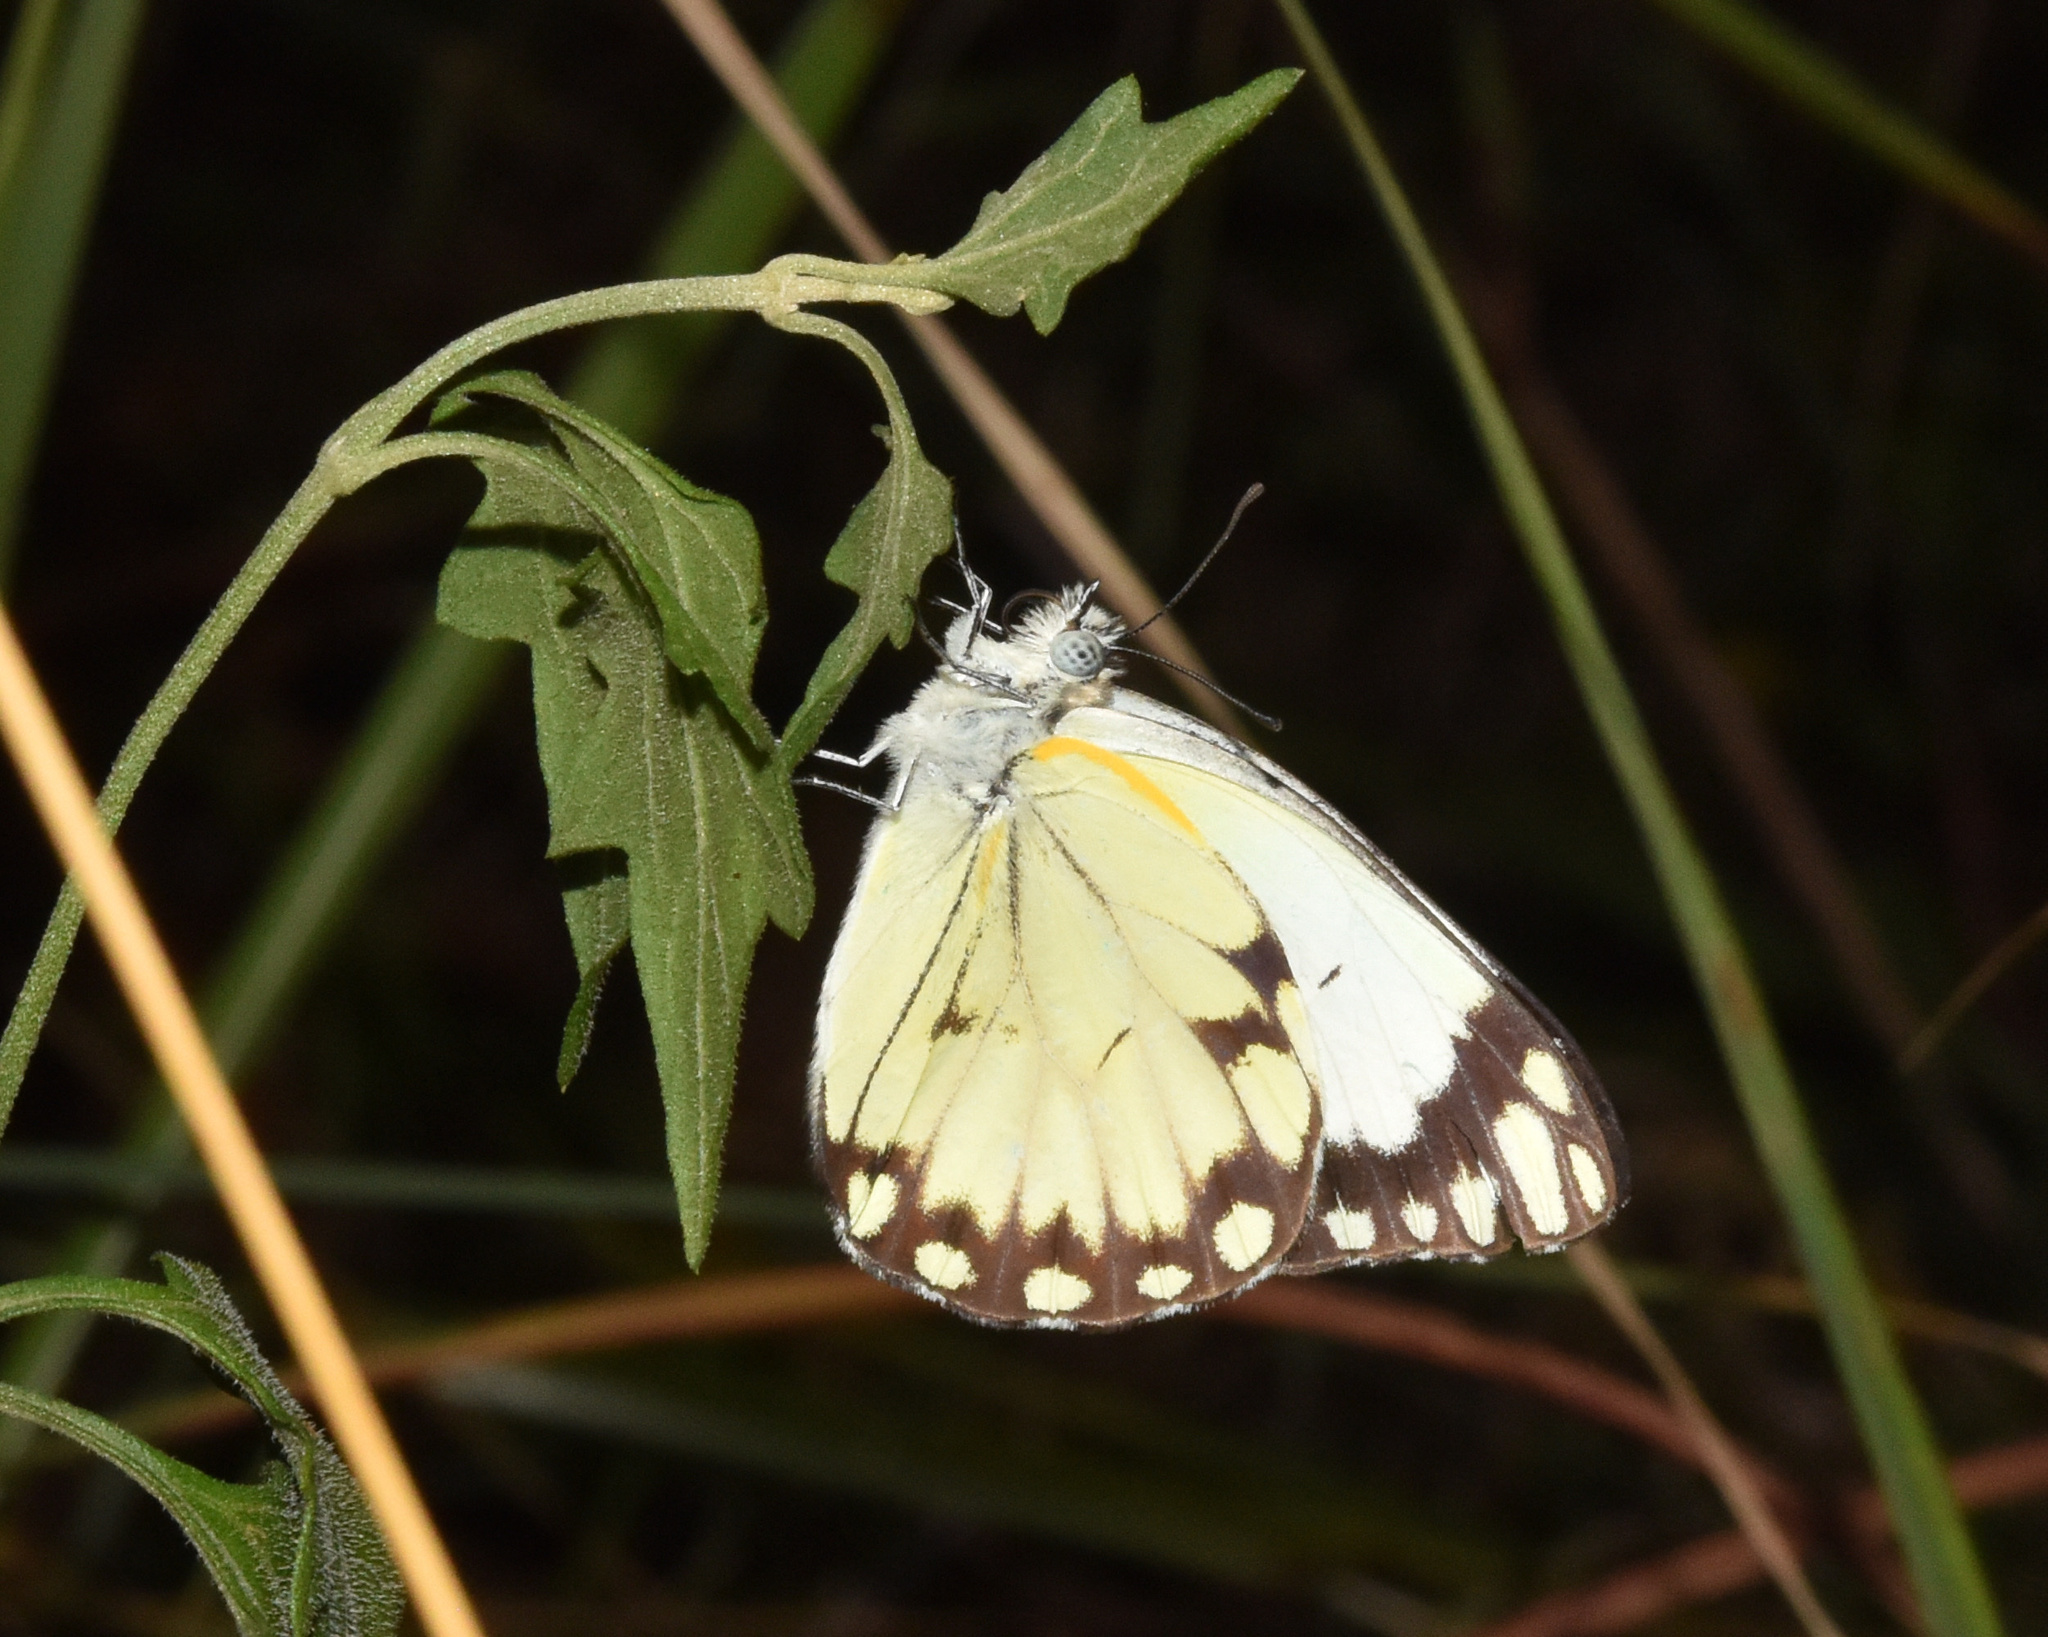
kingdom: Animalia
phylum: Arthropoda
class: Insecta
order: Lepidoptera
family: Pieridae
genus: Belenois
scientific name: Belenois creona
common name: African caper white
